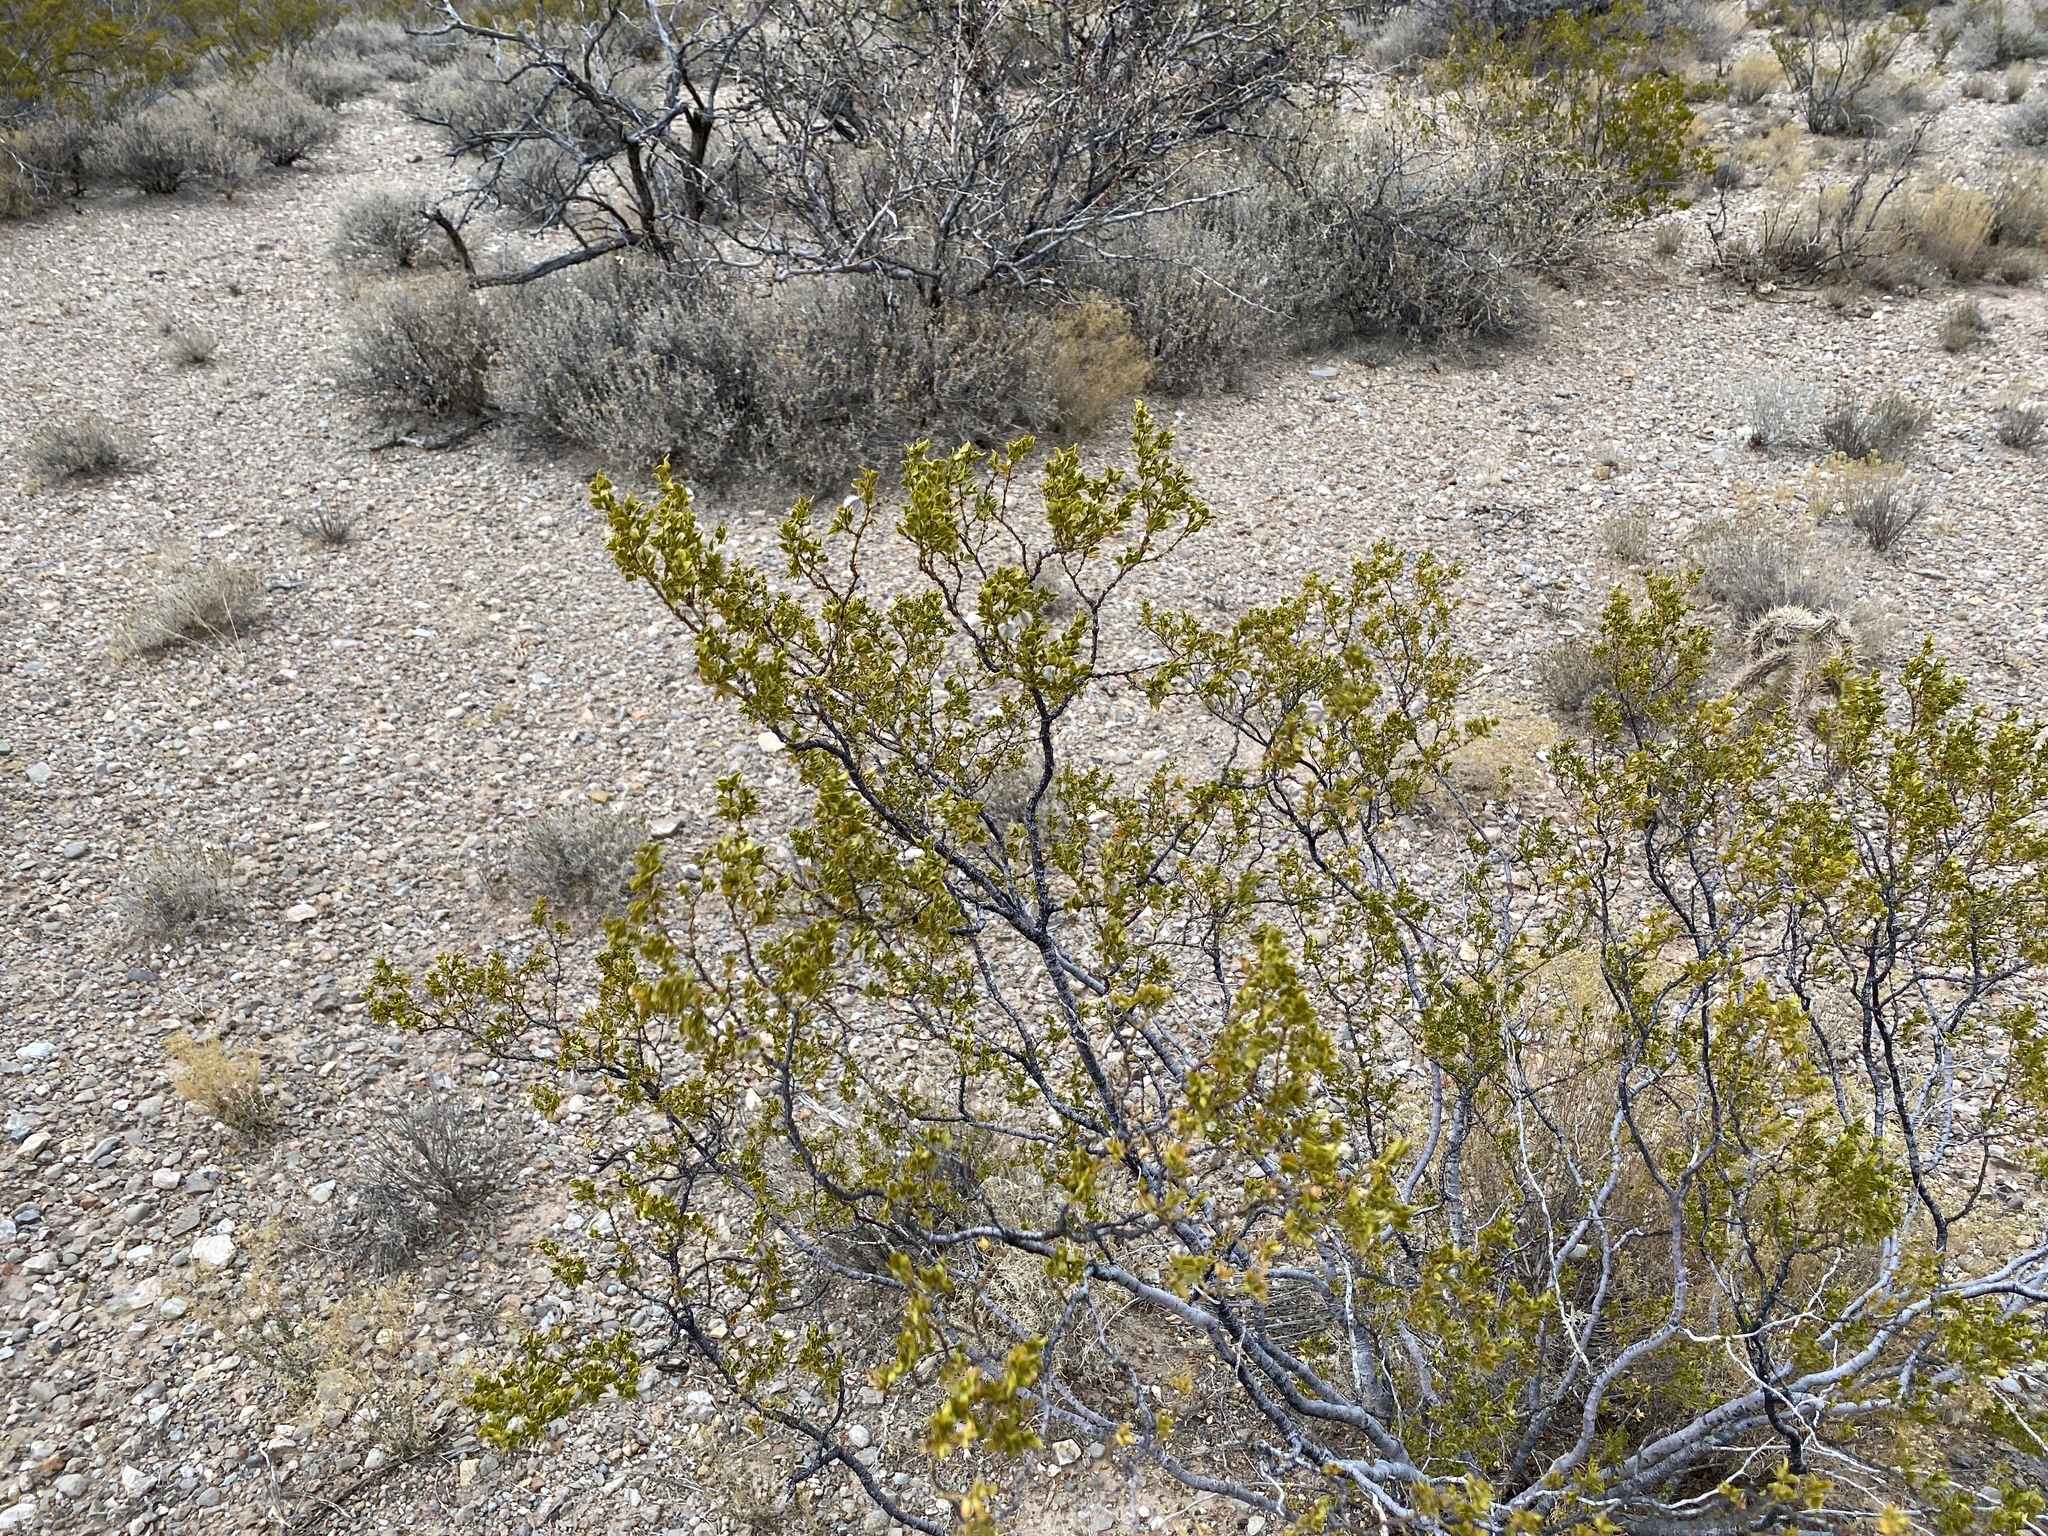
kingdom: Plantae
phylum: Tracheophyta
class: Magnoliopsida
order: Zygophyllales
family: Zygophyllaceae
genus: Larrea
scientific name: Larrea tridentata
